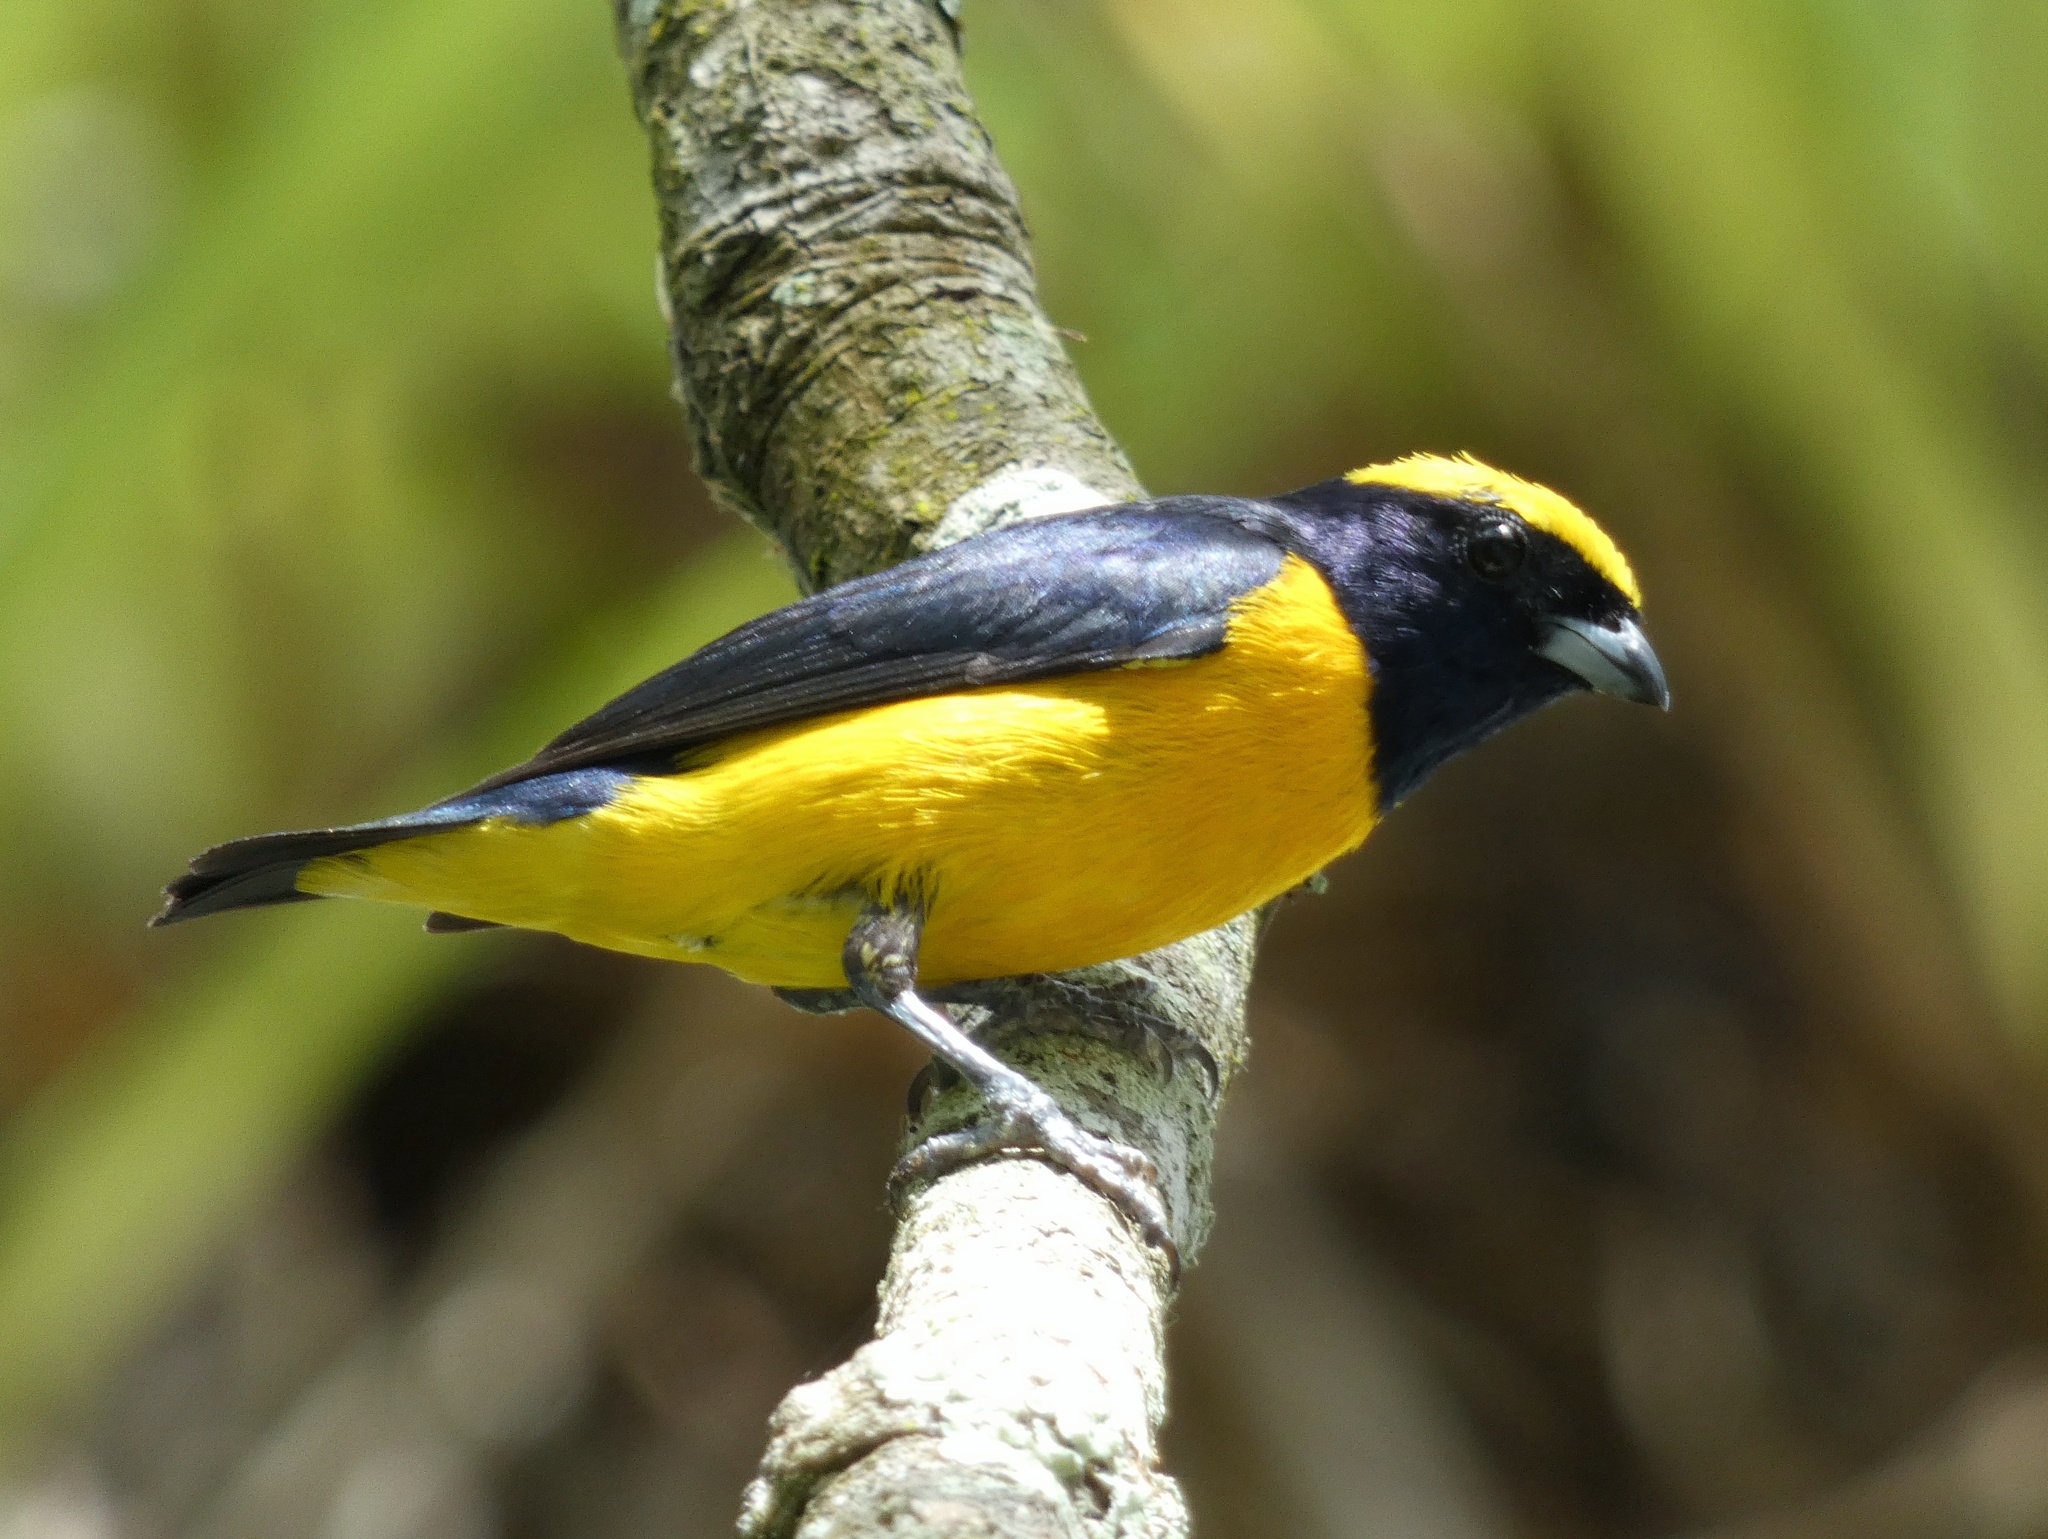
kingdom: Animalia
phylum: Chordata
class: Aves
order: Passeriformes
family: Fringillidae
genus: Euphonia
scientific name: Euphonia luteicapilla
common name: Yellow-crowned euphonia
